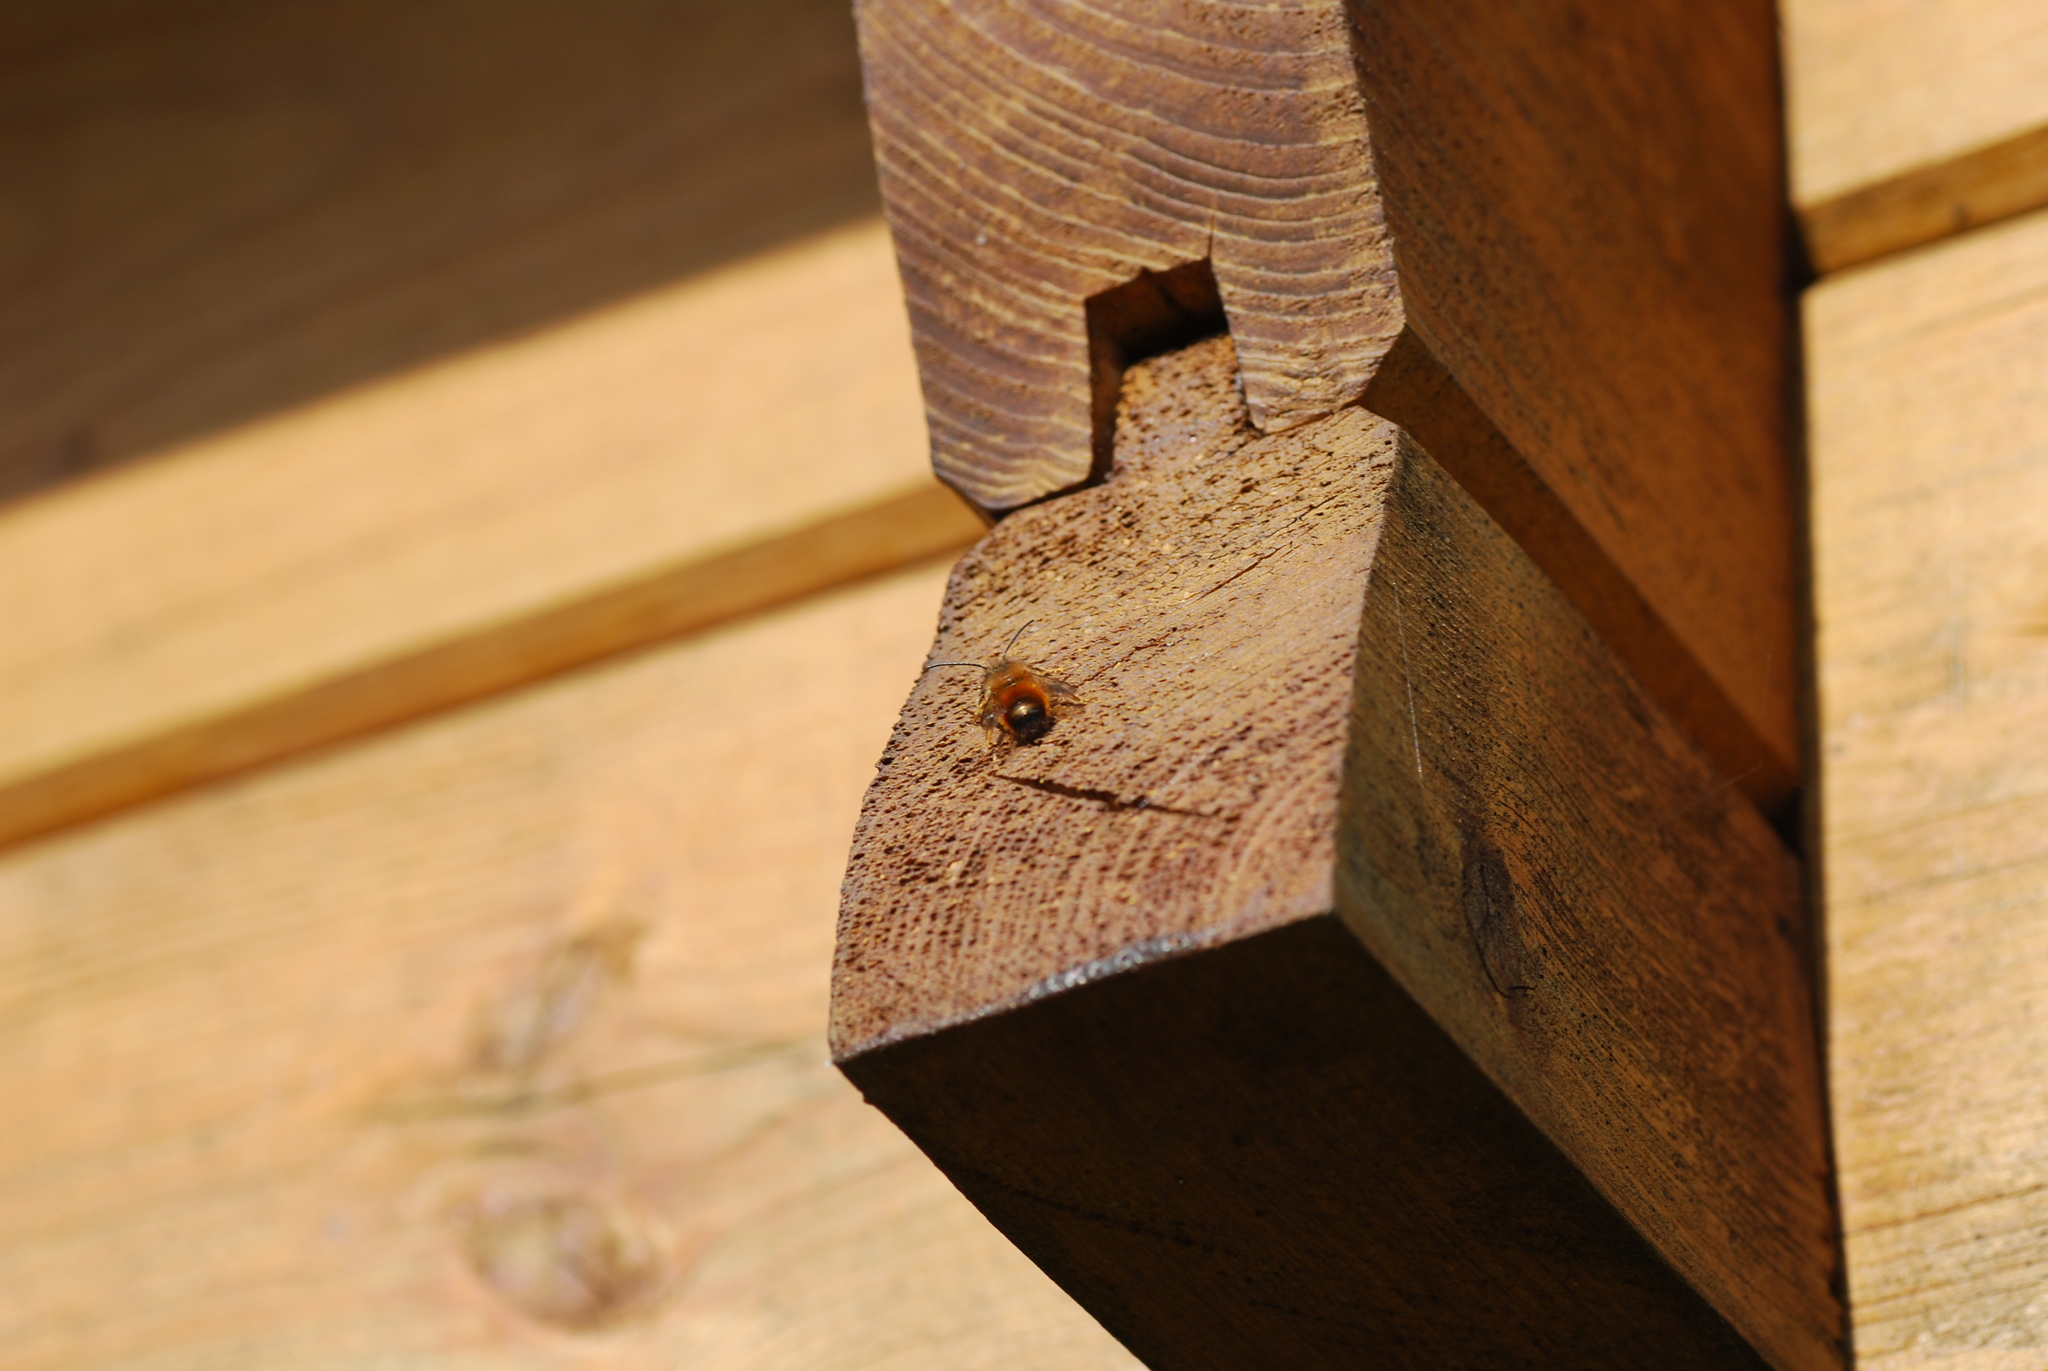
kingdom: Animalia
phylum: Arthropoda
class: Insecta
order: Hymenoptera
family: Megachilidae
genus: Osmia
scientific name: Osmia bicornis
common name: Red mason bee
